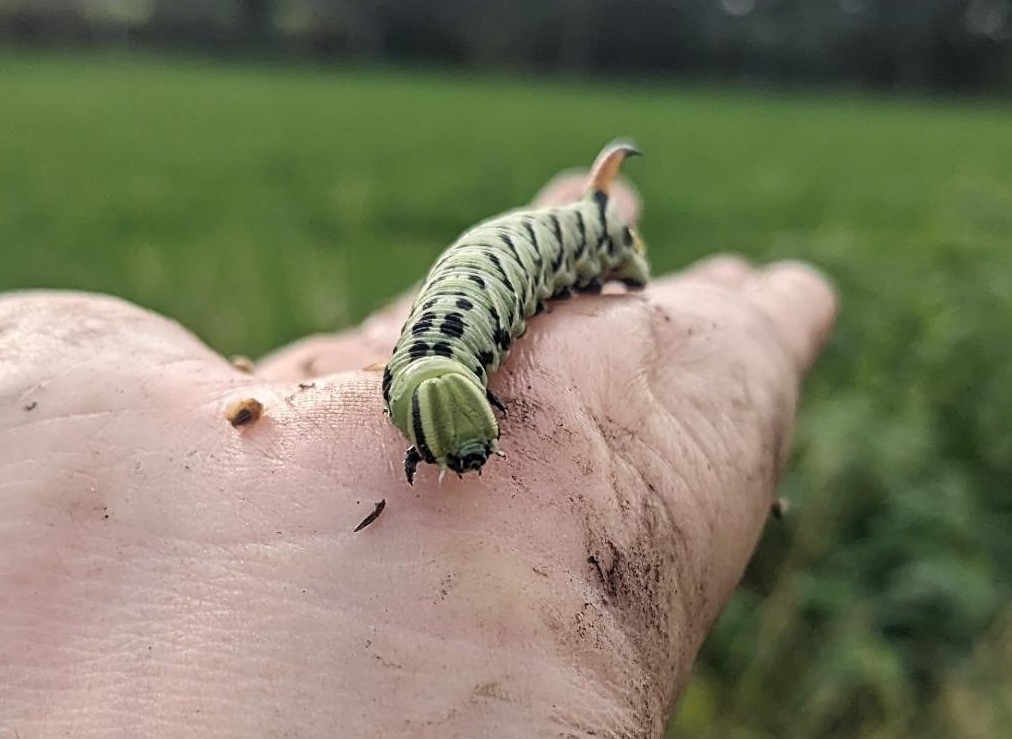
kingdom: Animalia
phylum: Arthropoda
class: Insecta
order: Lepidoptera
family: Sphingidae
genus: Agrius
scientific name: Agrius convolvuli
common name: Convolvulus hawkmoth
